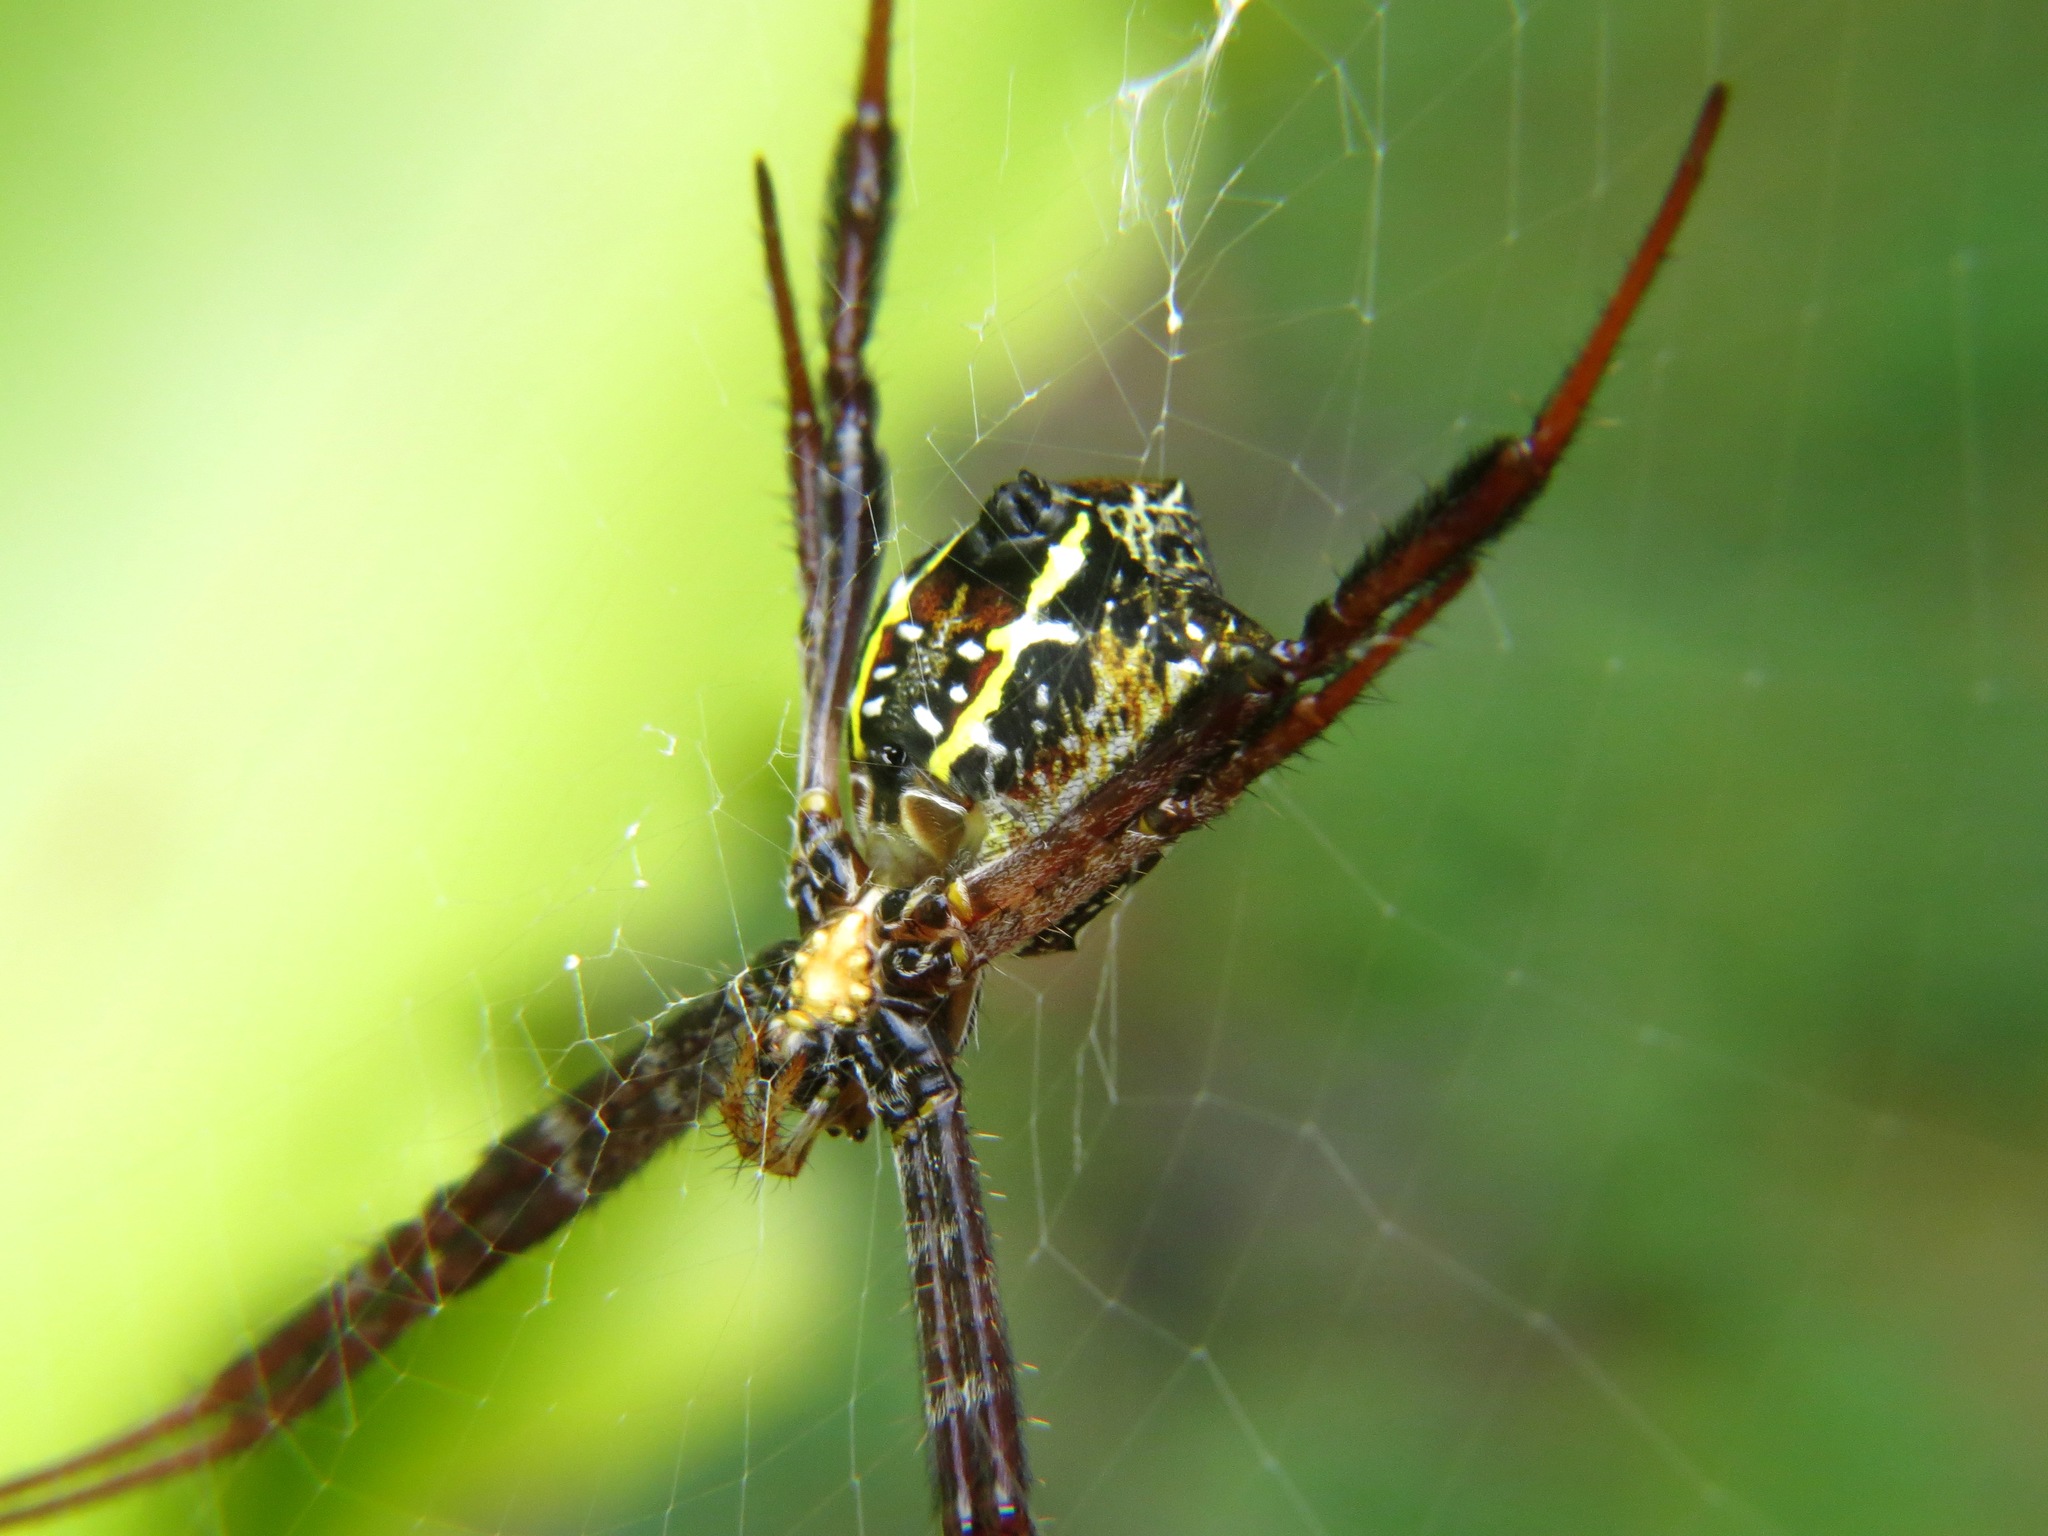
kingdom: Animalia
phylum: Arthropoda
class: Arachnida
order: Araneae
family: Araneidae
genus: Argiope
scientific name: Argiope reinwardti
